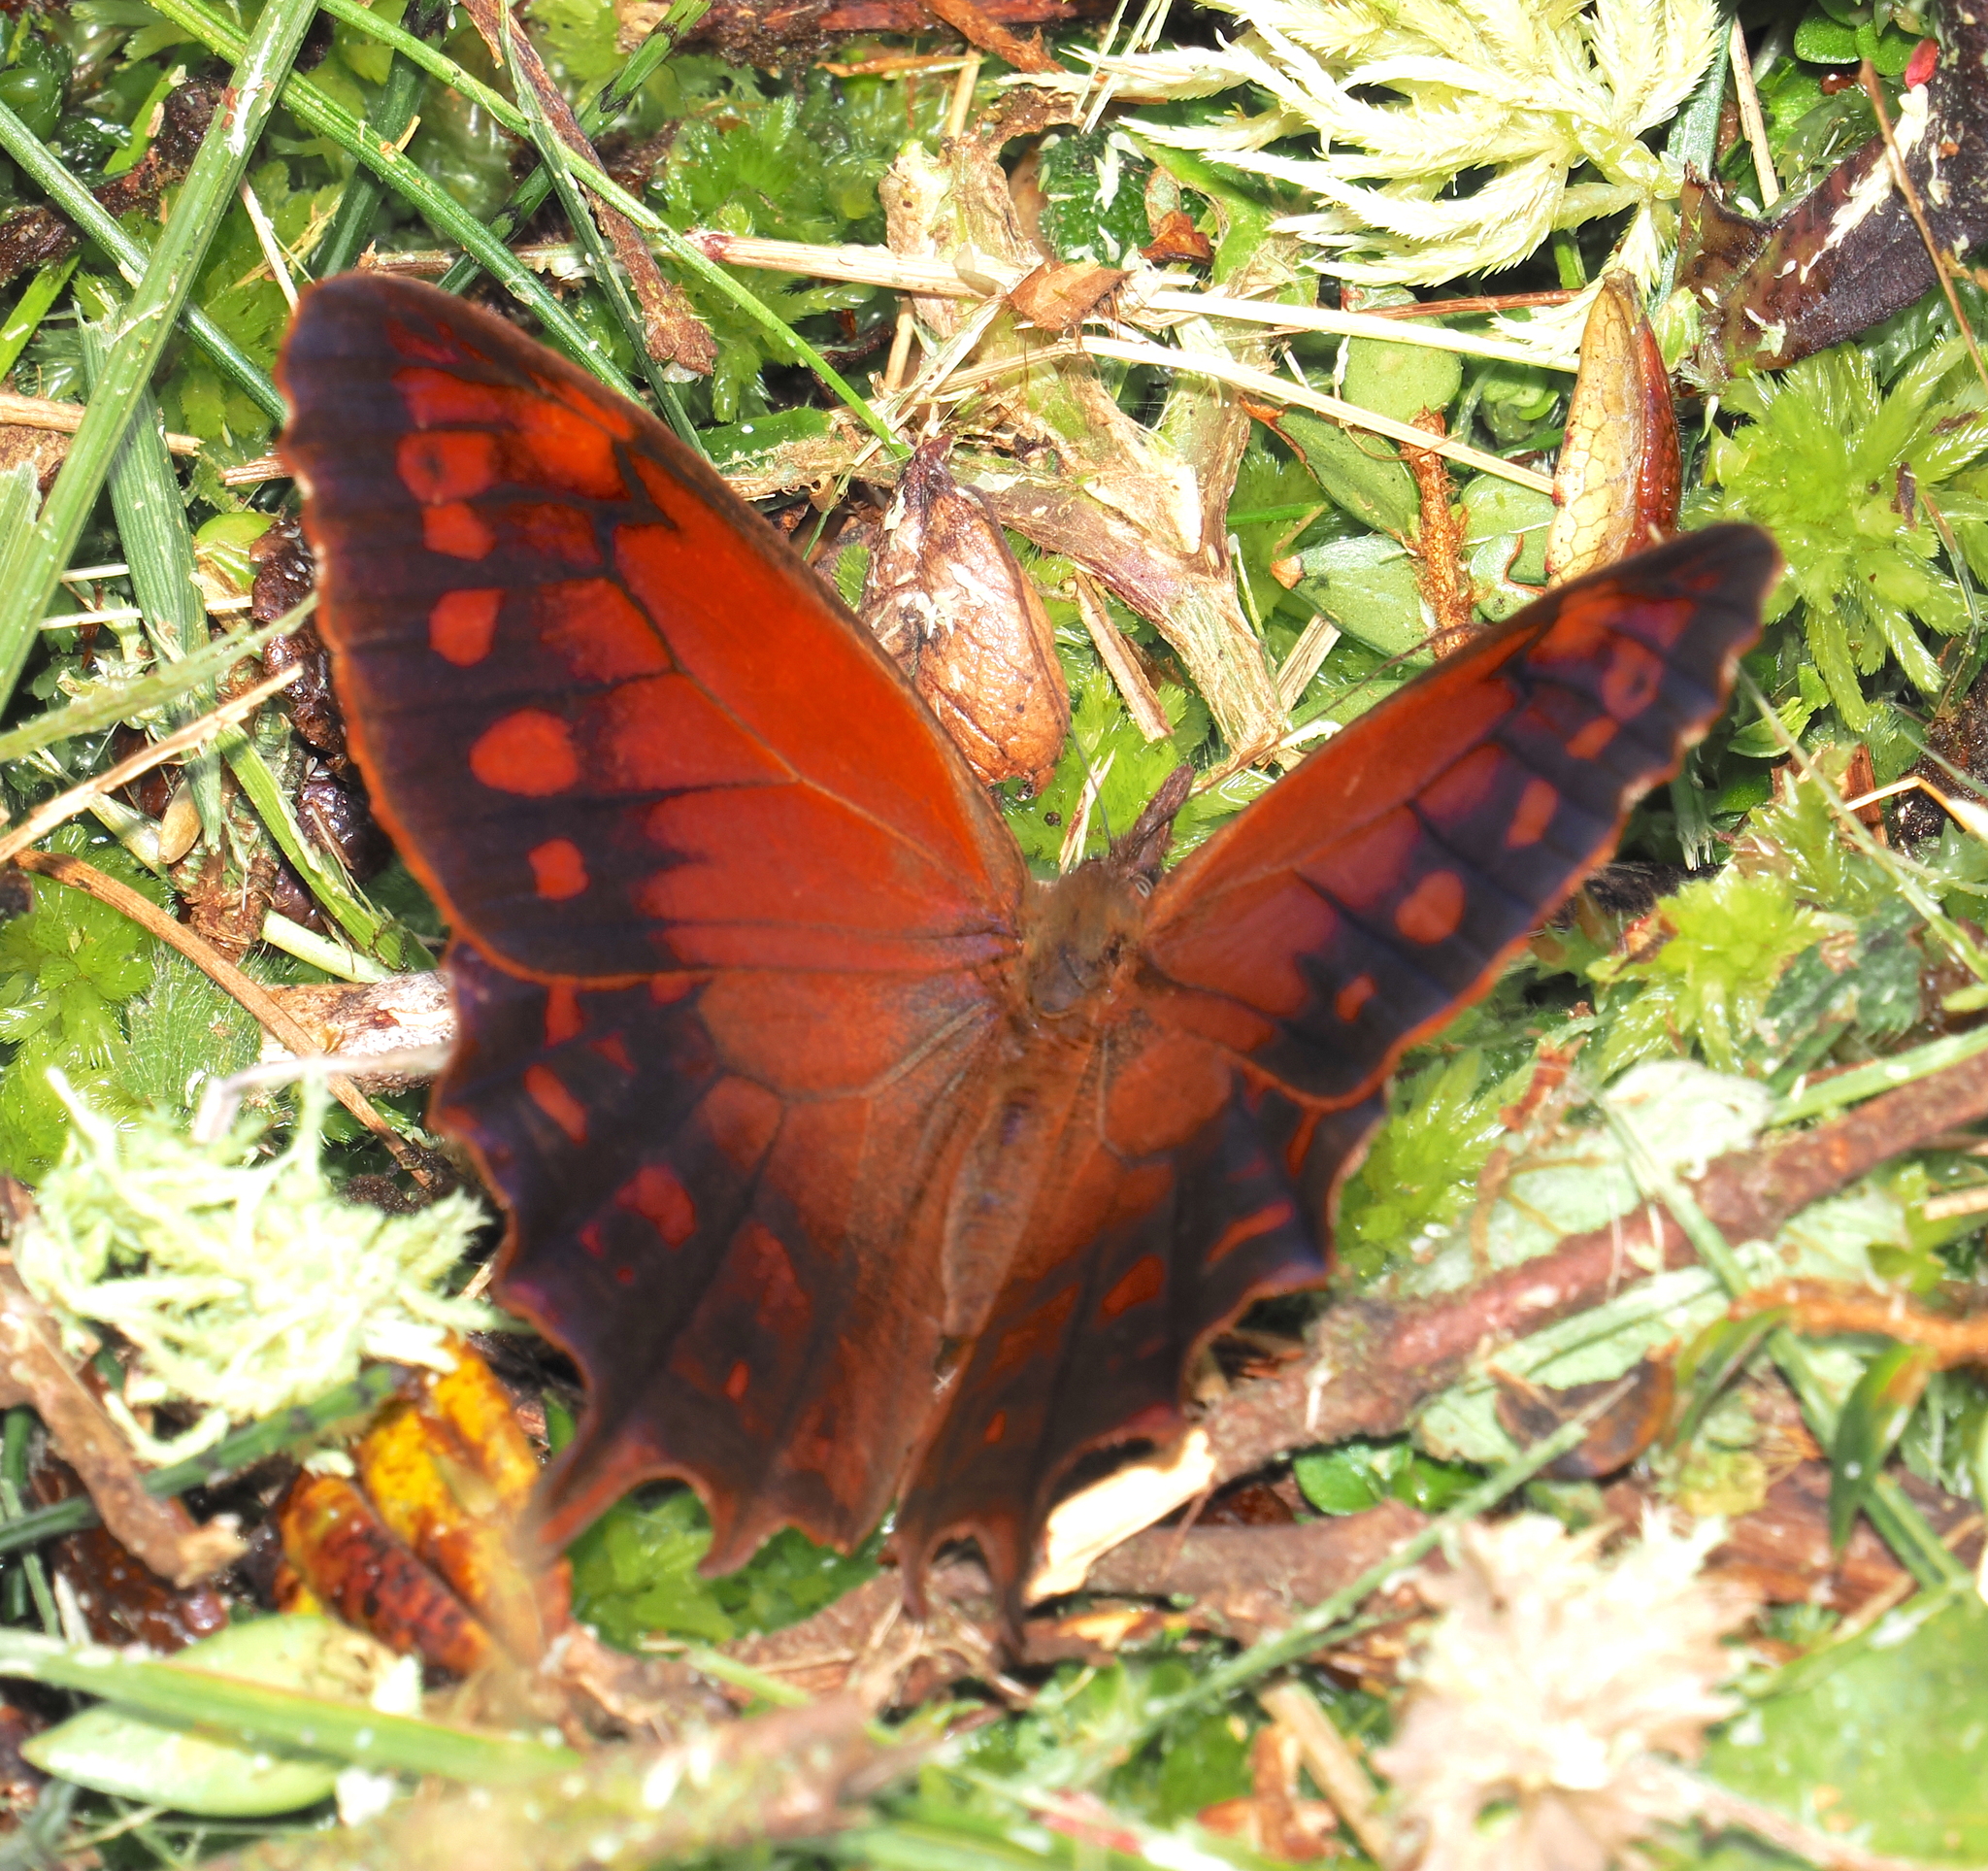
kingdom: Animalia
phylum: Arthropoda
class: Insecta
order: Lepidoptera
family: Nymphalidae
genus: Lasiophila
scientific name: Lasiophila circe
